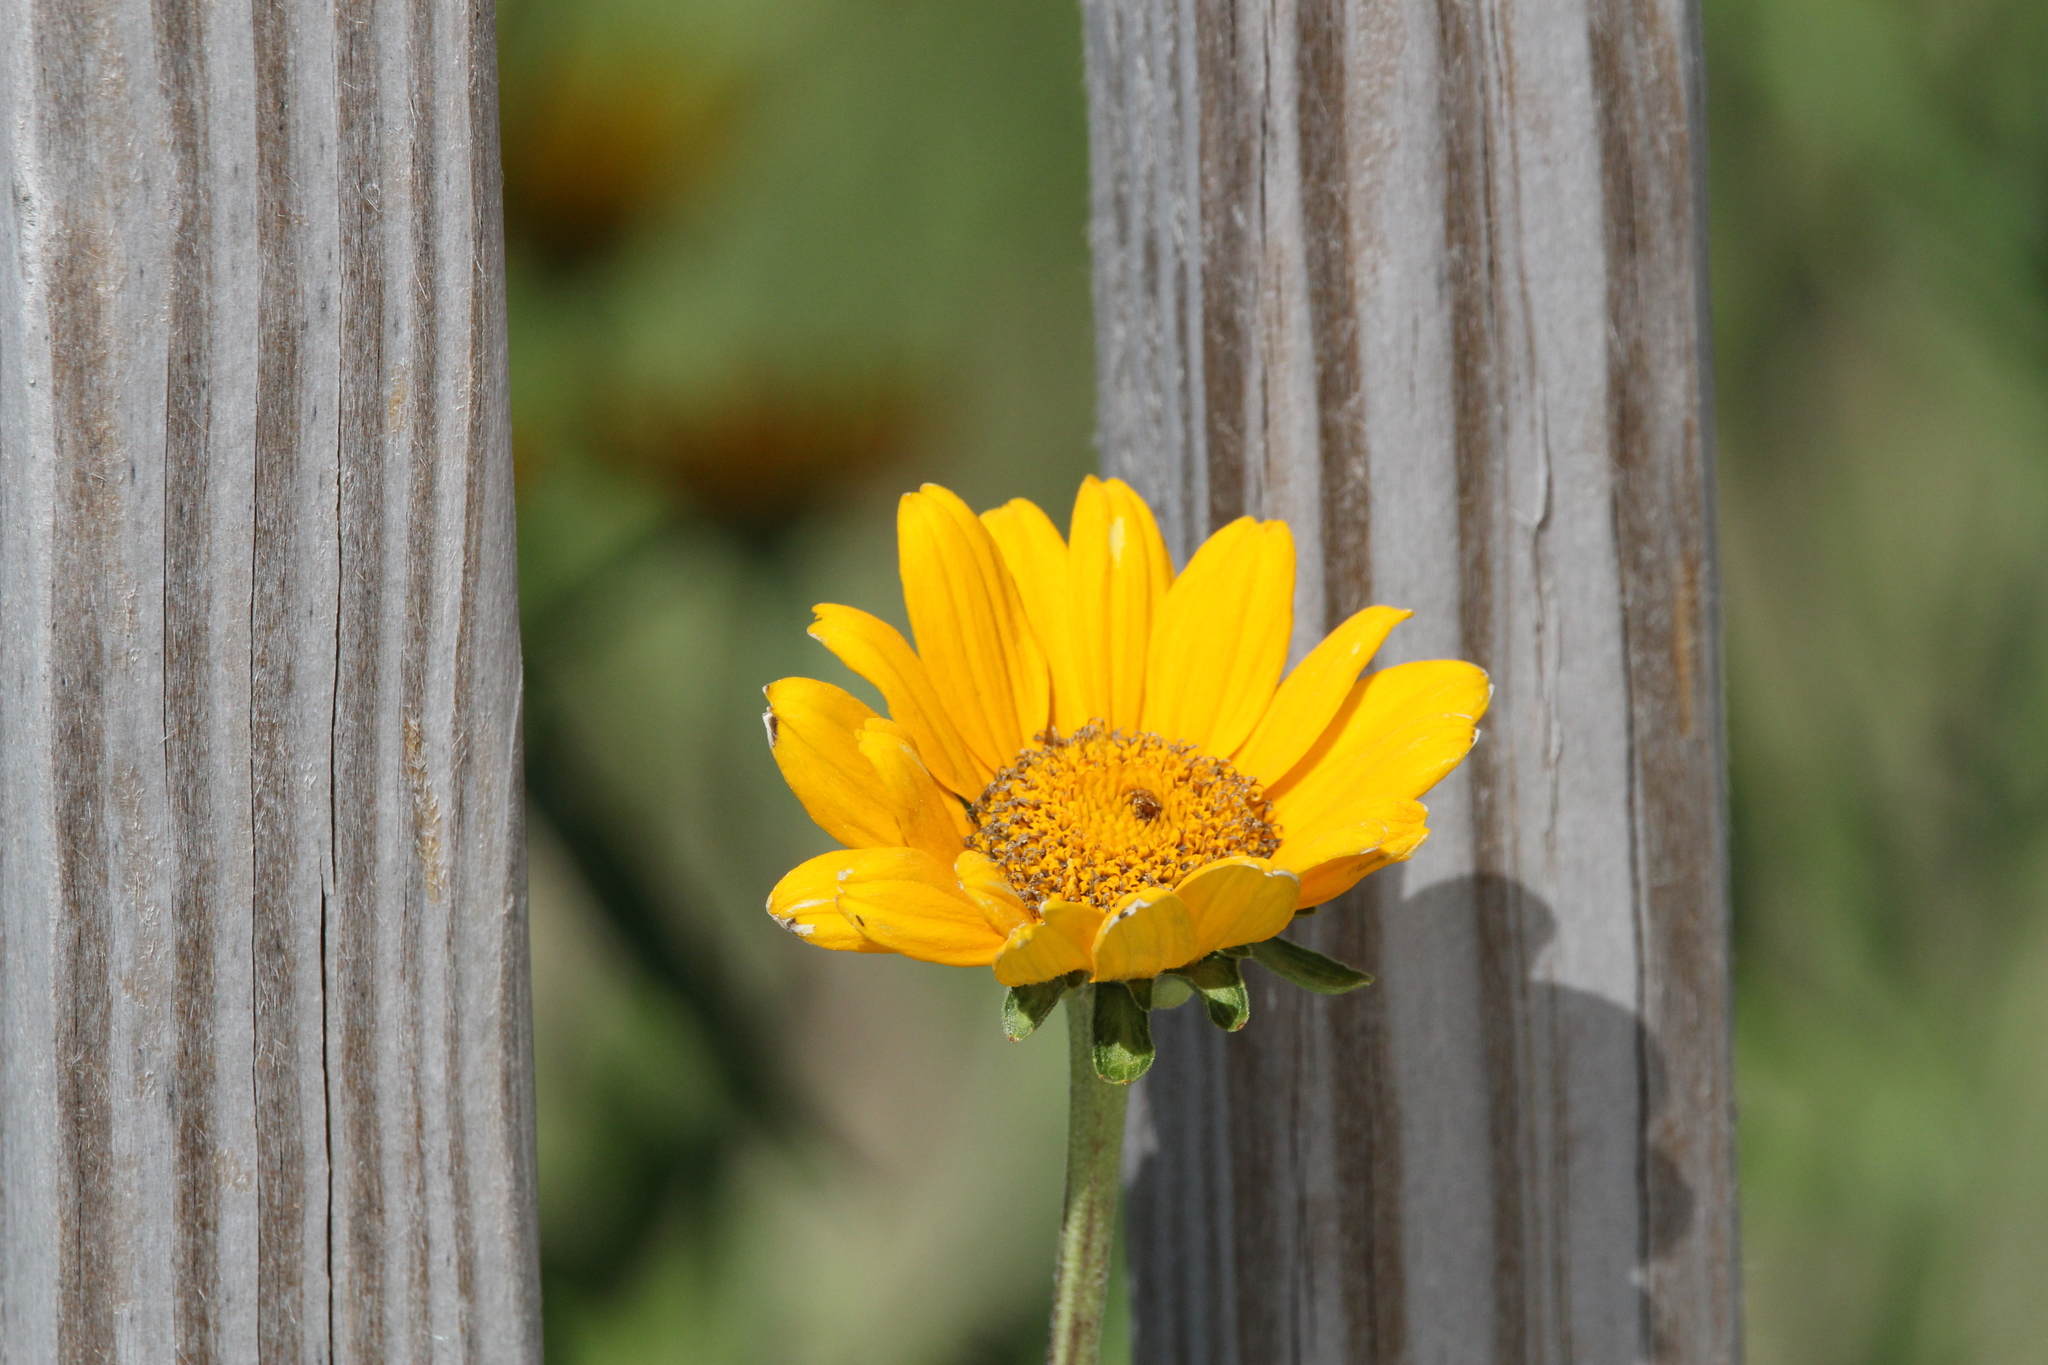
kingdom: Plantae
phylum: Tracheophyta
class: Magnoliopsida
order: Asterales
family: Asteraceae
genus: Heliopsis
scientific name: Heliopsis helianthoides
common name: False sunflower
